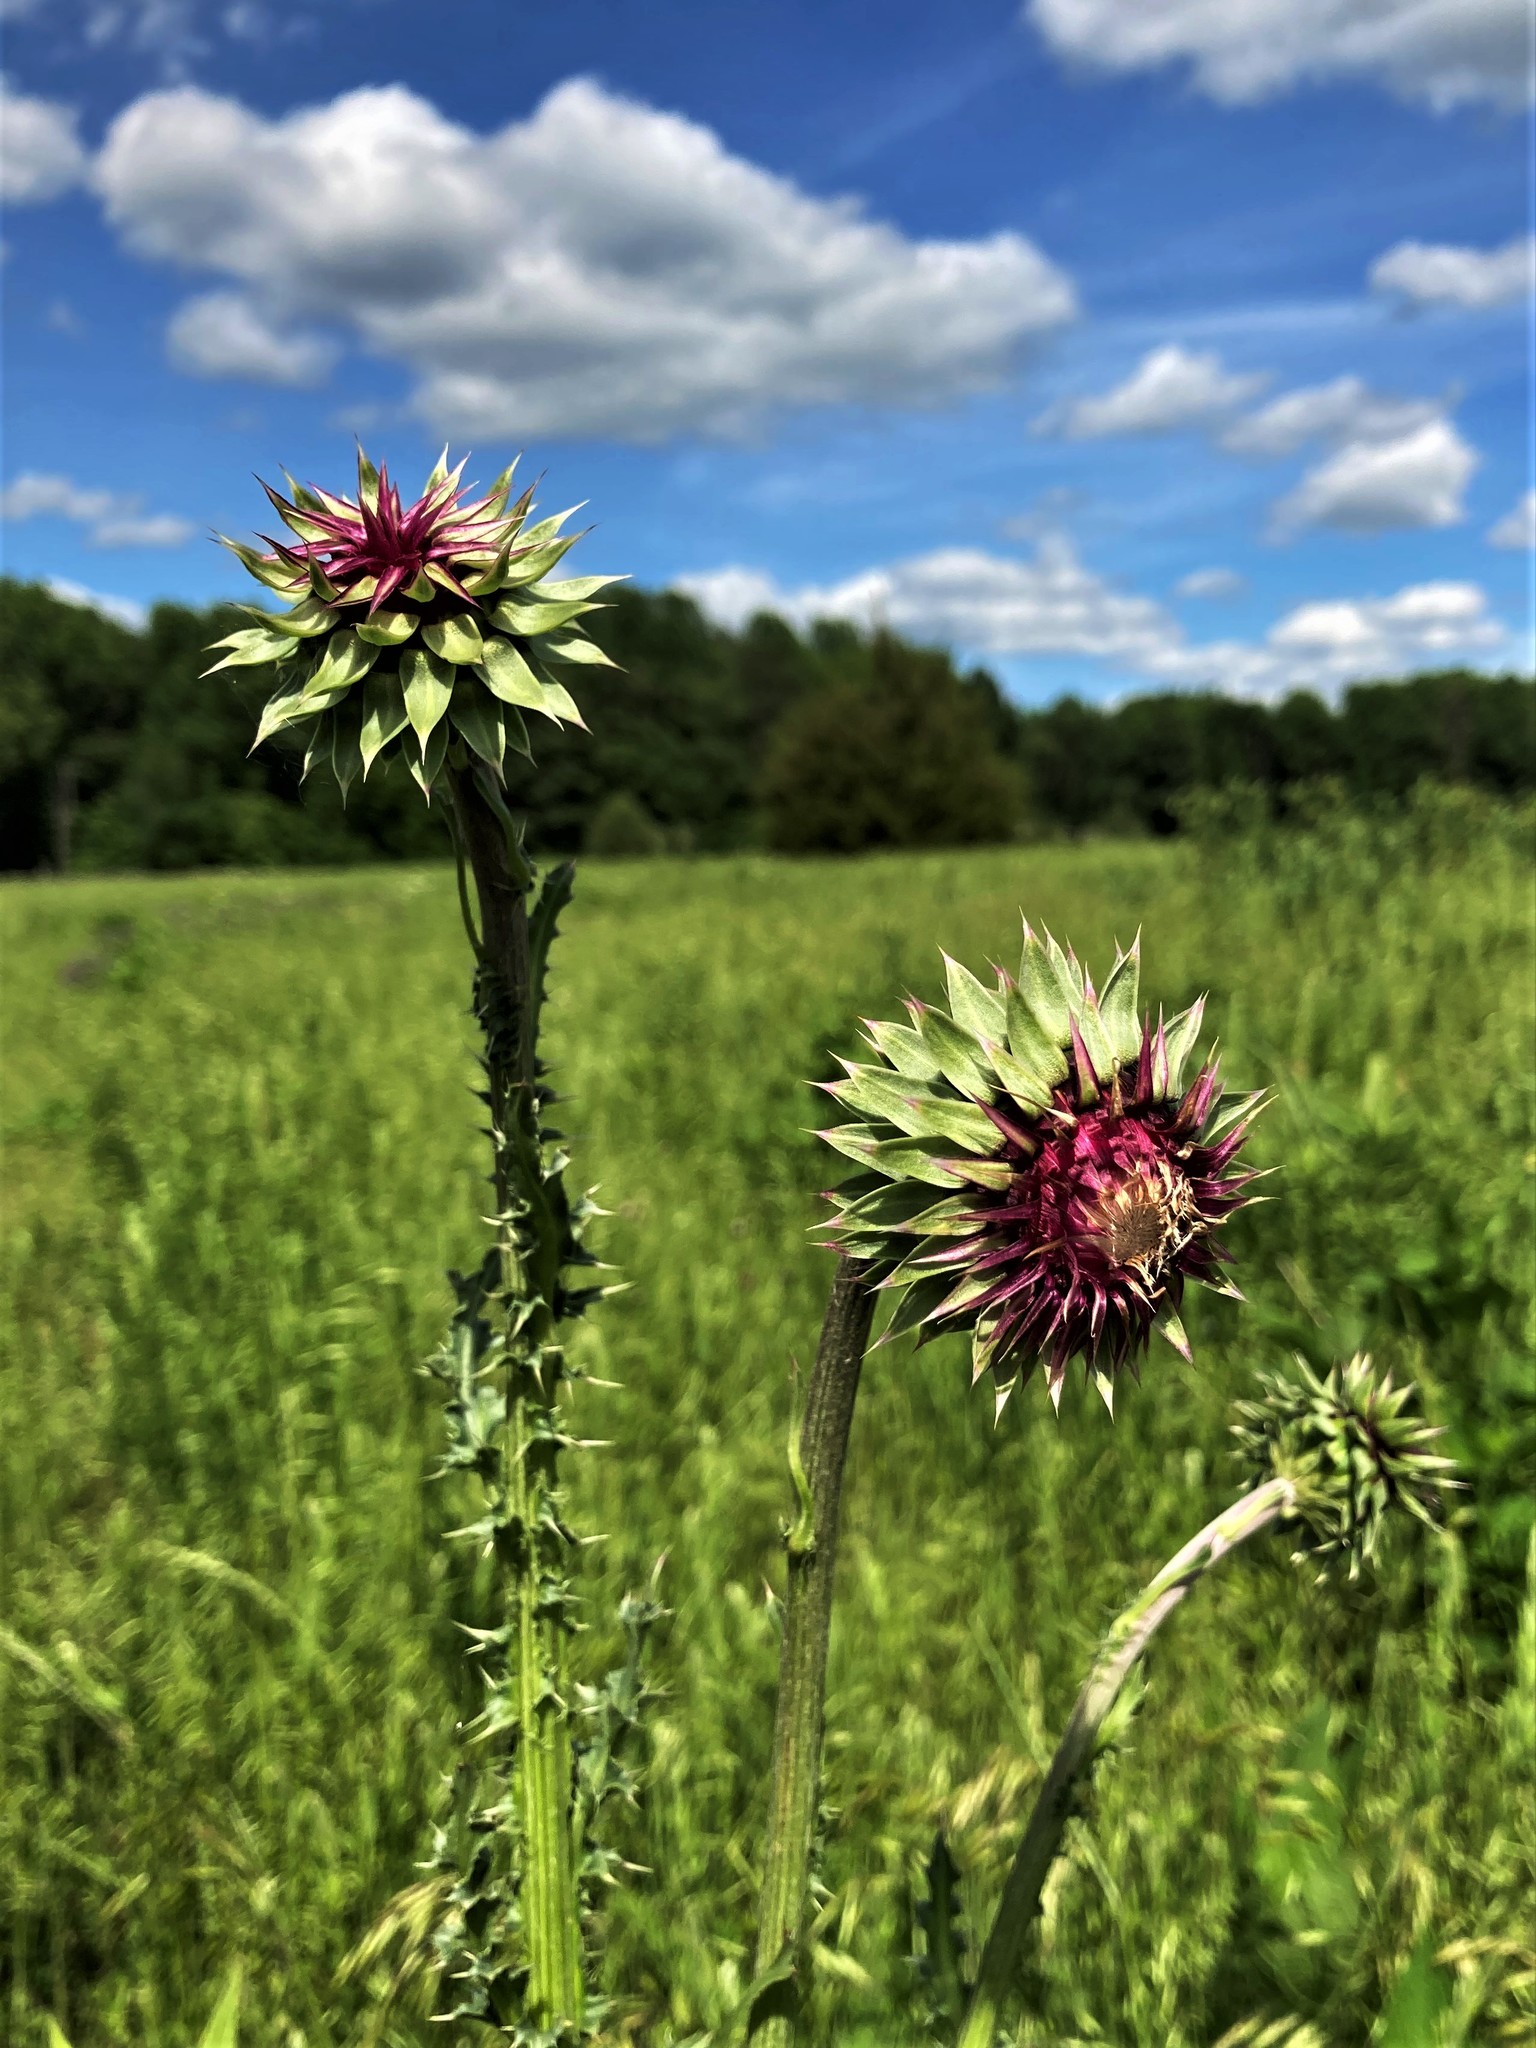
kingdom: Plantae
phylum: Tracheophyta
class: Magnoliopsida
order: Asterales
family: Asteraceae
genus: Carduus
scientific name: Carduus nutans
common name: Musk thistle
